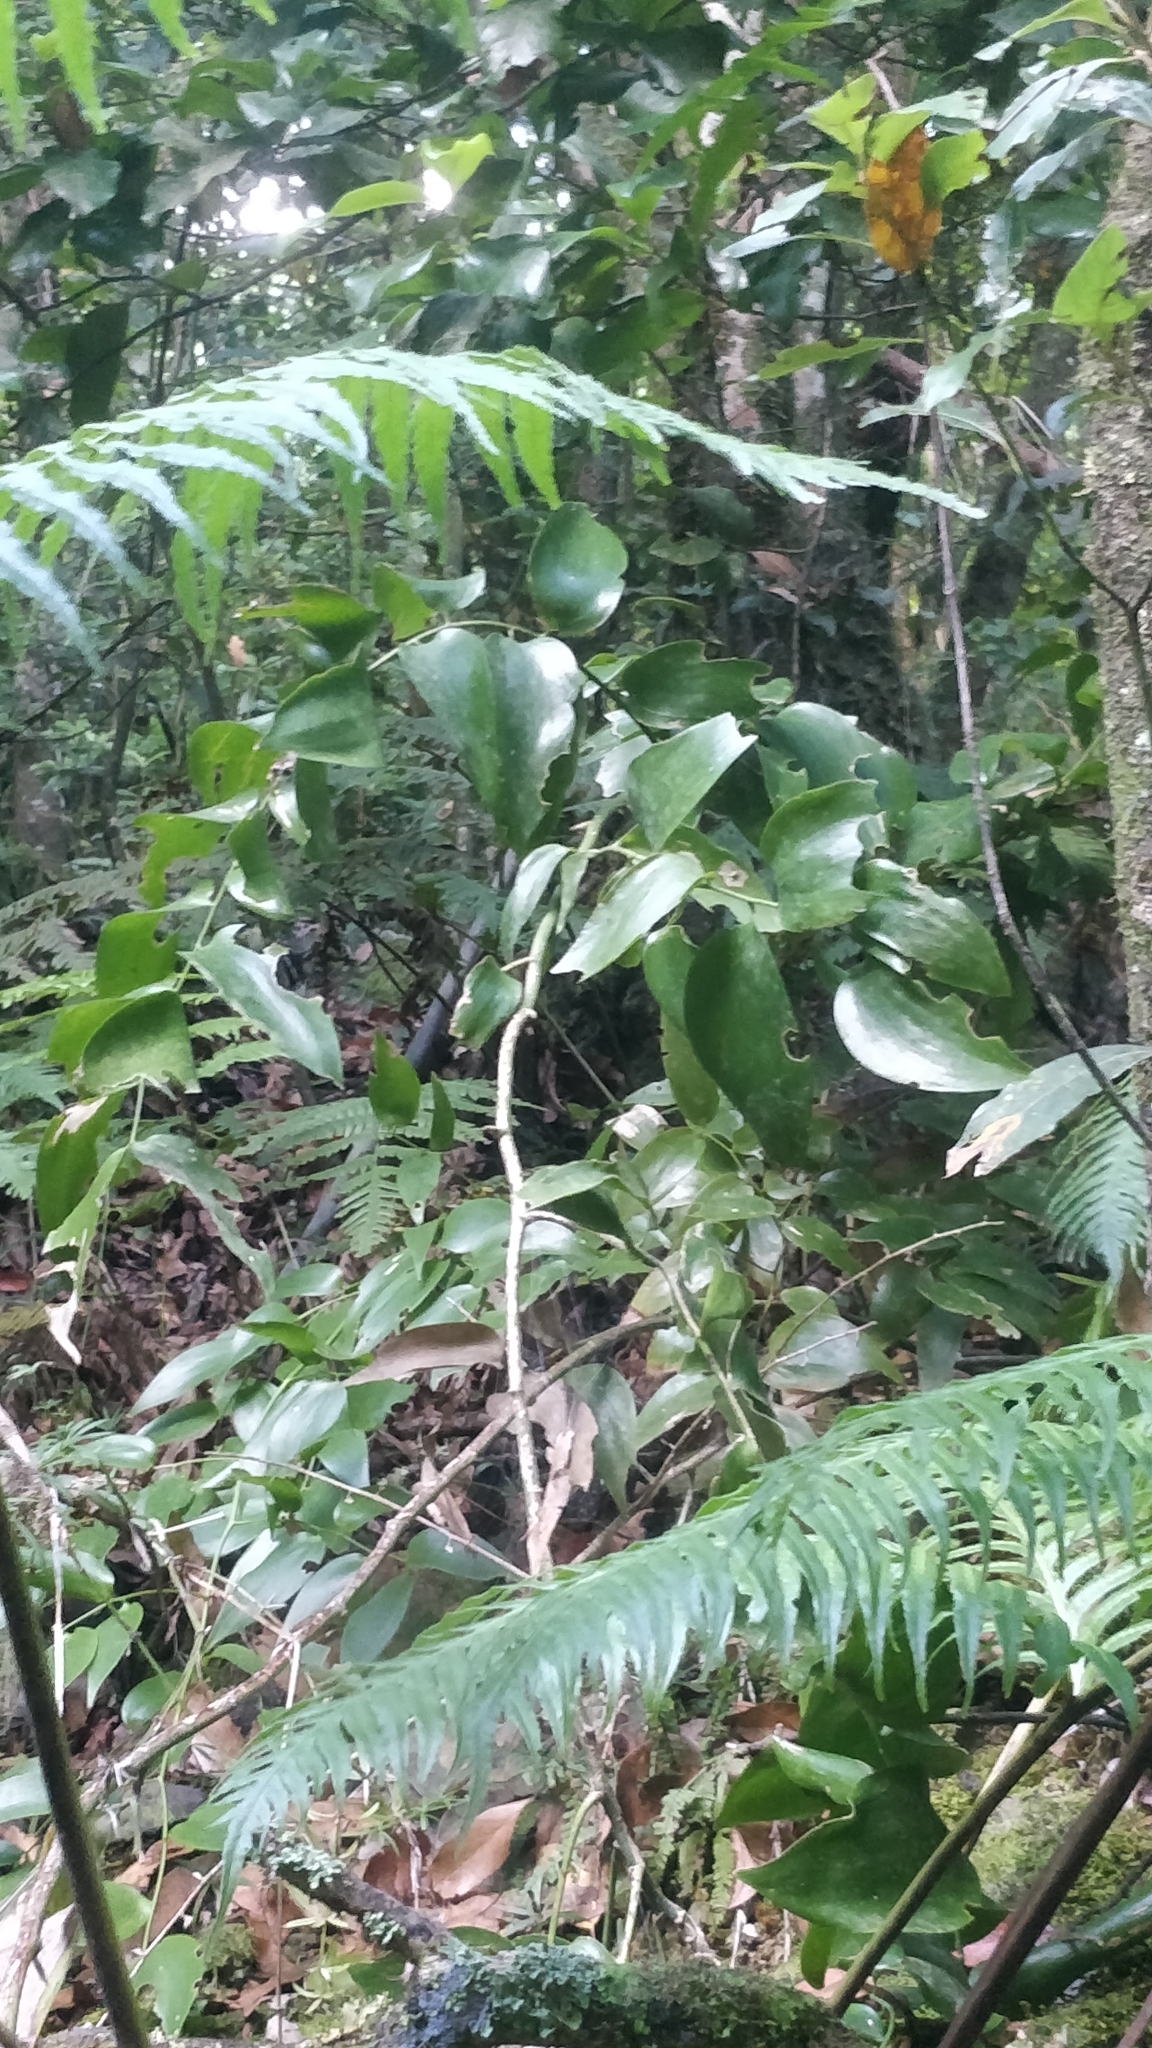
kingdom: Plantae
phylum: Tracheophyta
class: Liliopsida
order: Asparagales
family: Asparagaceae
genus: Semele
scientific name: Semele androgyna
